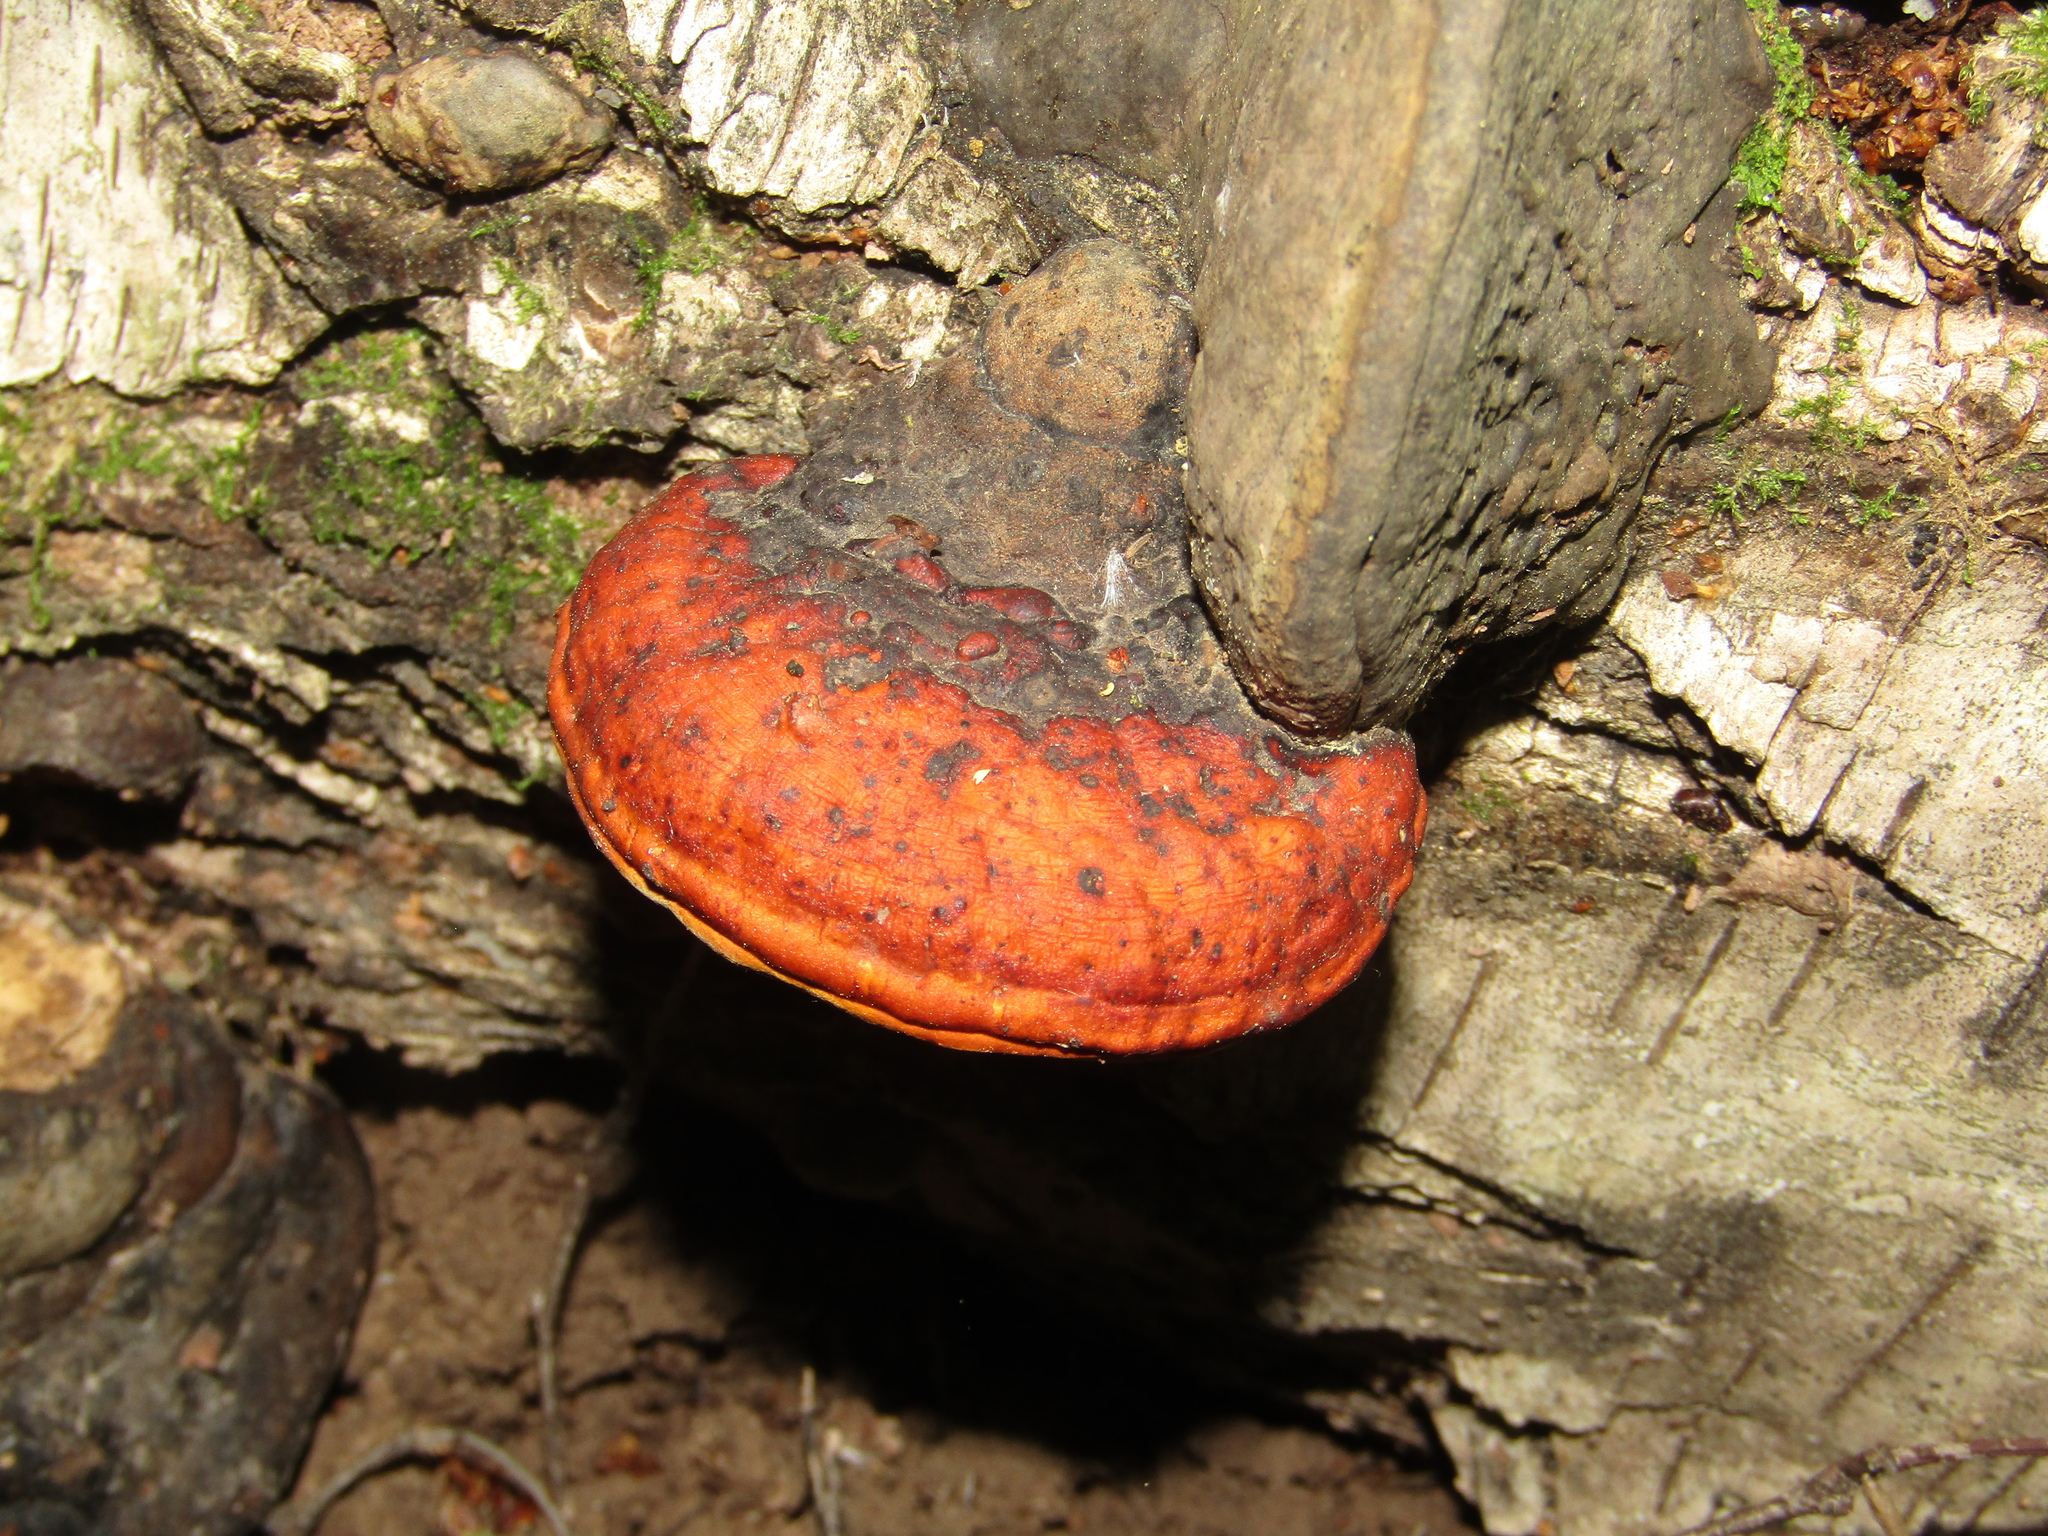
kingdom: Fungi
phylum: Basidiomycota
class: Agaricomycetes
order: Polyporales
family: Fomitopsidaceae
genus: Fomitopsis
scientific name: Fomitopsis pinicola
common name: Red-belted bracket
